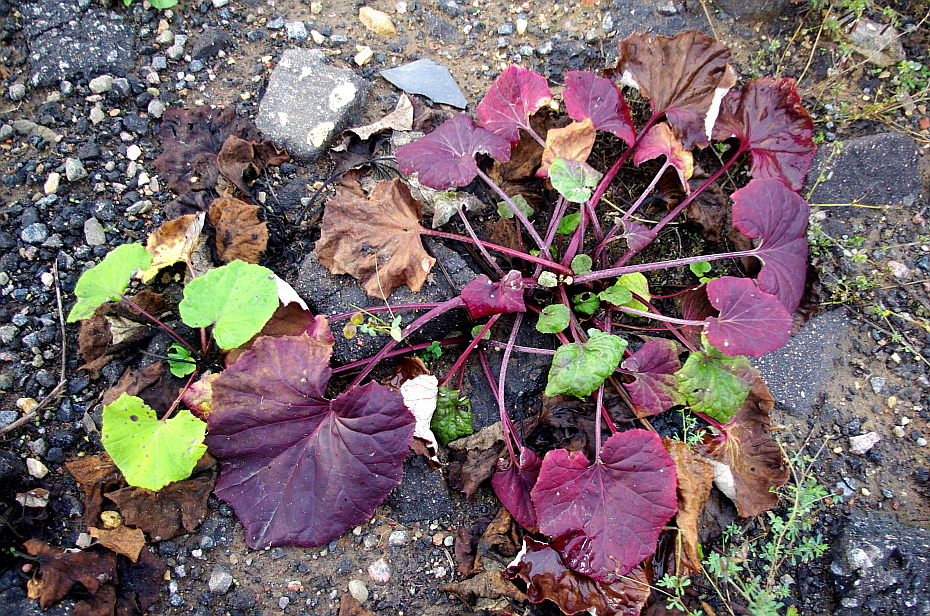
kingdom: Plantae
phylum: Tracheophyta
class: Magnoliopsida
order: Asterales
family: Asteraceae
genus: Tussilago
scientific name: Tussilago farfara
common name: Coltsfoot
